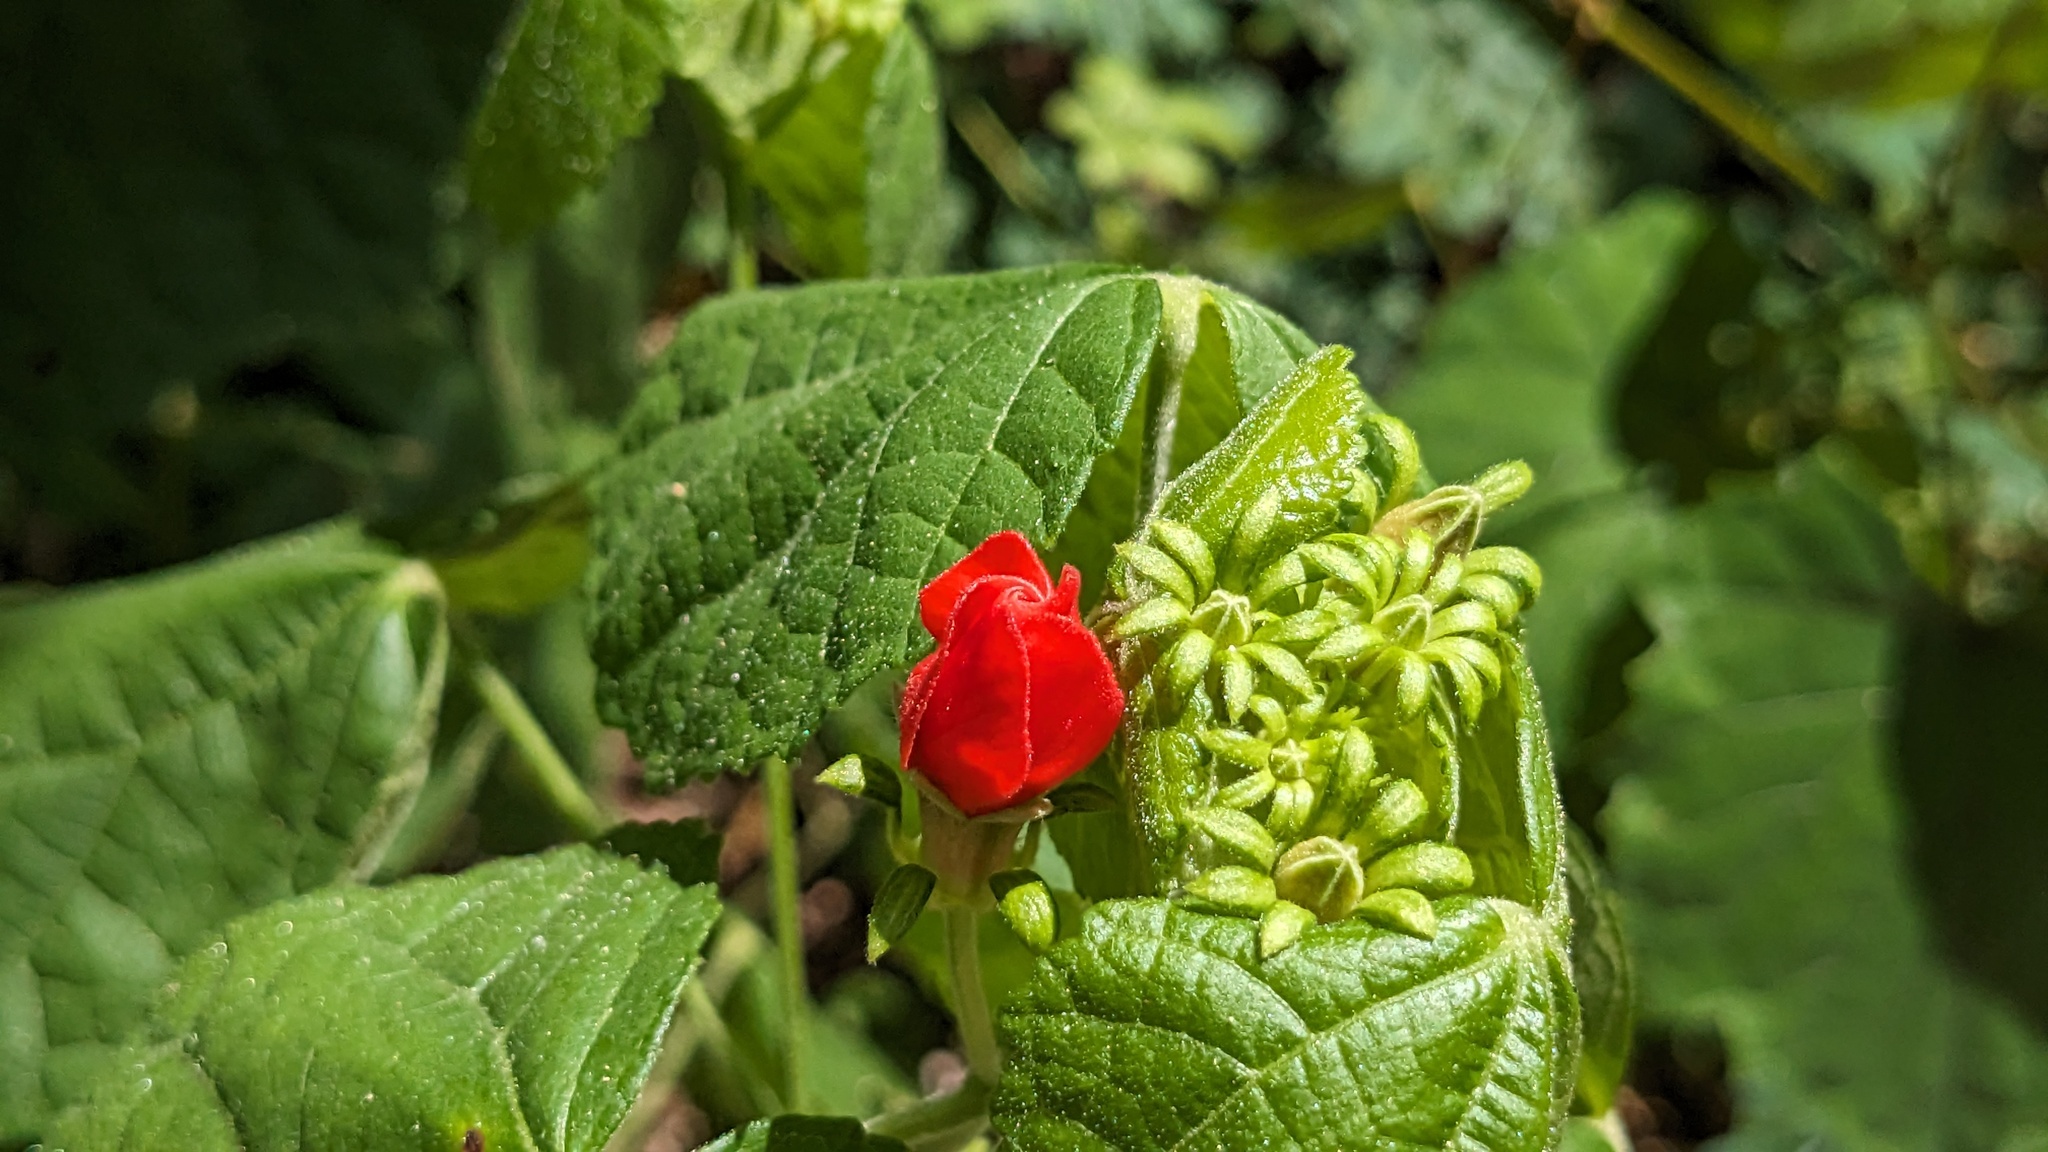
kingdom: Plantae
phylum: Tracheophyta
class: Magnoliopsida
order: Malvales
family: Malvaceae
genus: Malvaviscus
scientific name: Malvaviscus arboreus
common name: Wax mallow
